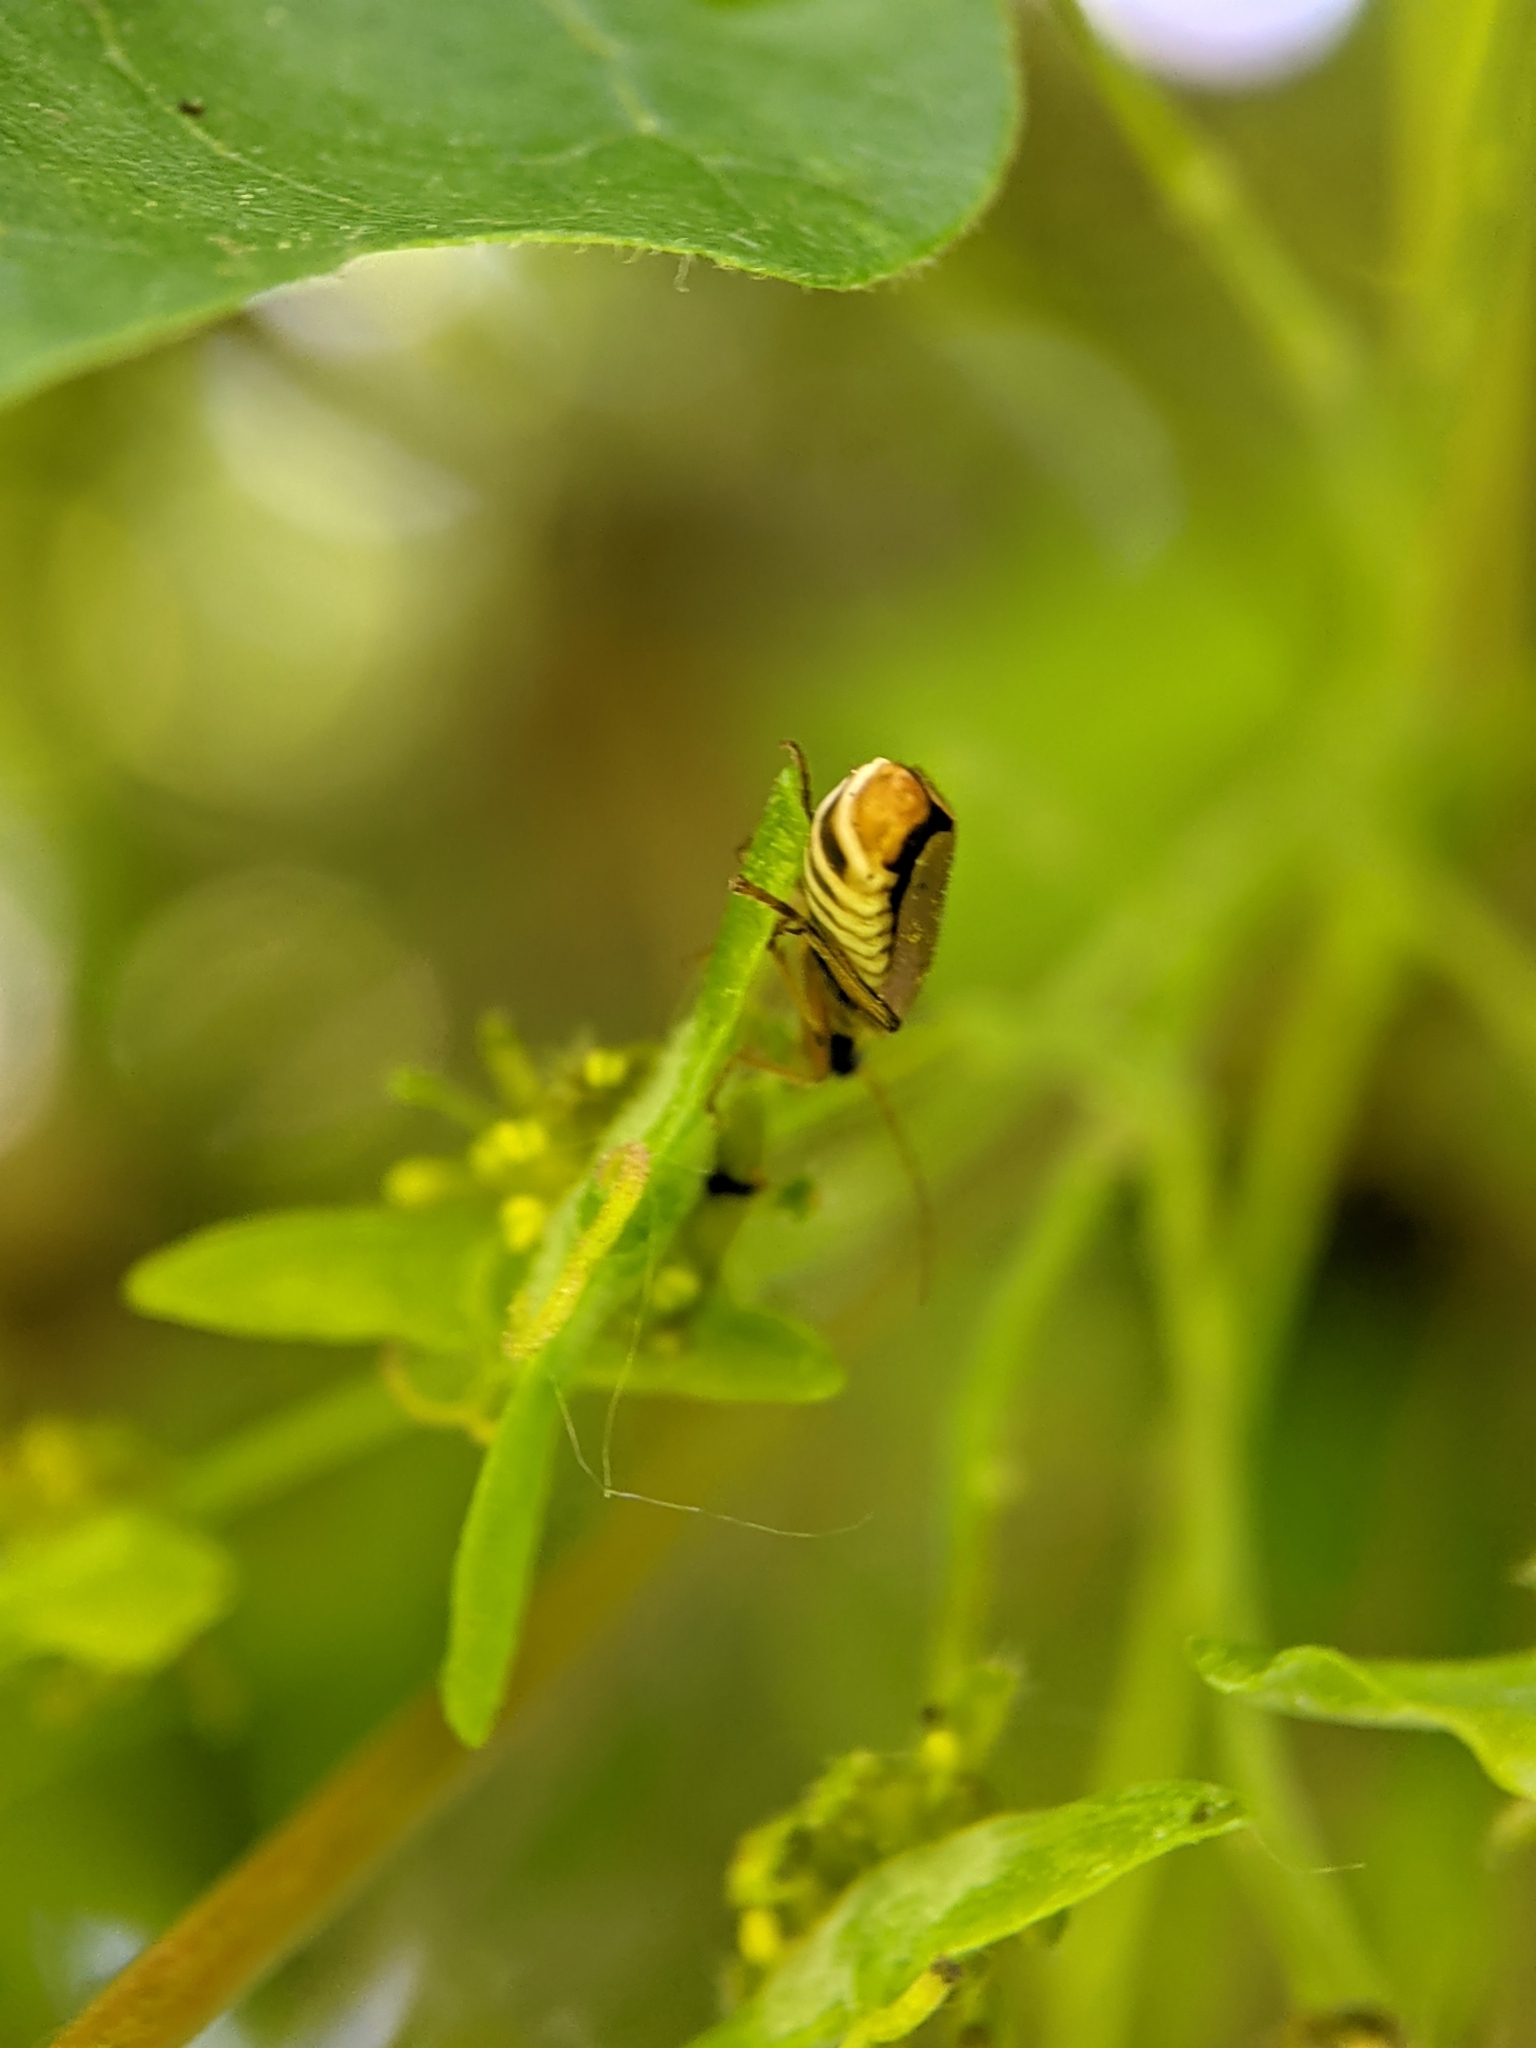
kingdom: Animalia
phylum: Arthropoda
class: Insecta
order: Coleoptera
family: Cantharidae
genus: Cantharis
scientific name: Cantharis decipiens
